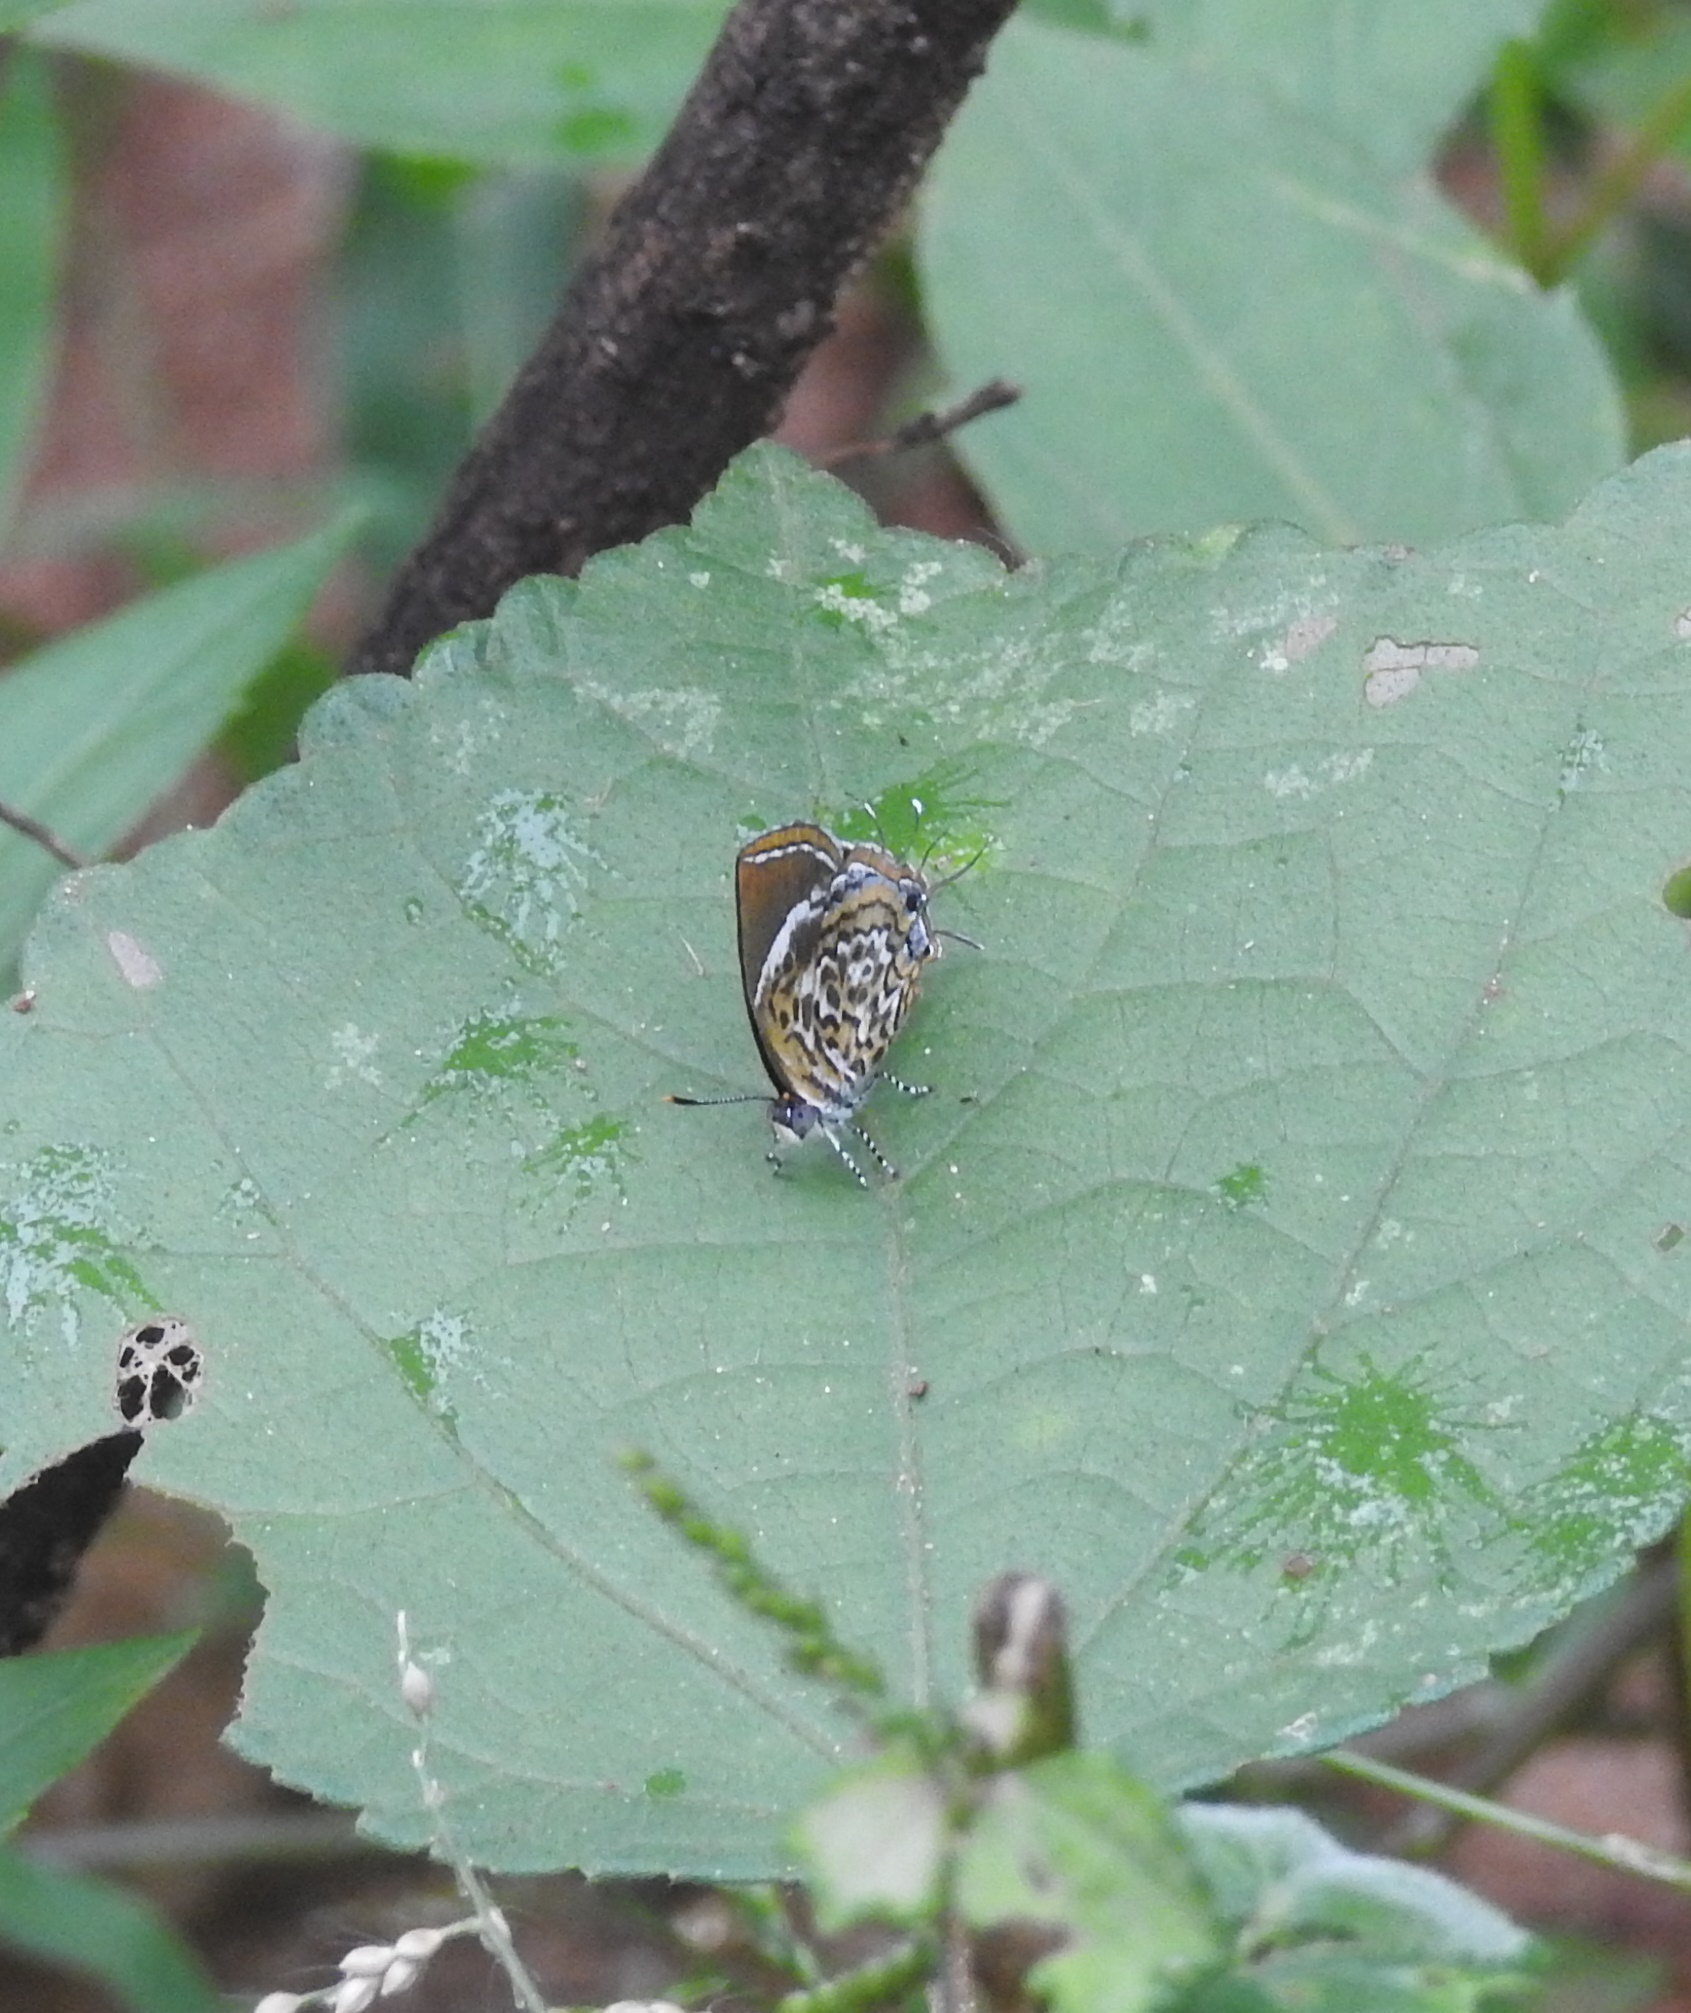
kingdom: Animalia
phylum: Arthropoda
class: Insecta
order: Lepidoptera
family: Lycaenidae
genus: Rathinda
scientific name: Rathinda amor
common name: Monkey puzzle
